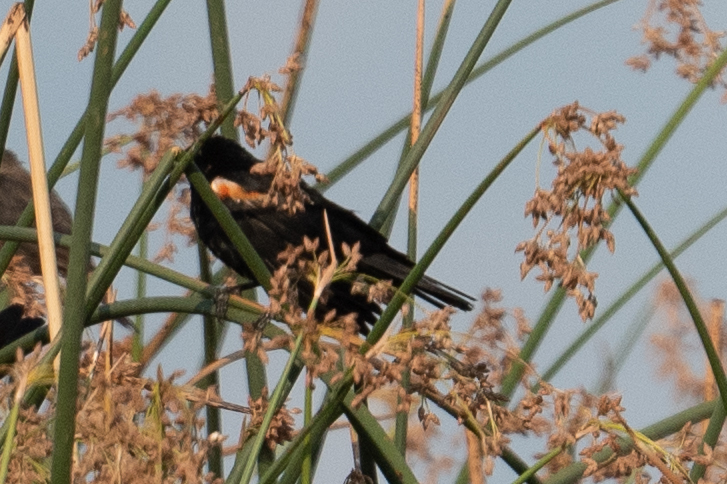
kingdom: Animalia
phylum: Chordata
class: Aves
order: Passeriformes
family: Icteridae
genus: Agelaius
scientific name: Agelaius tricolor
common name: Tricolored blackbird
